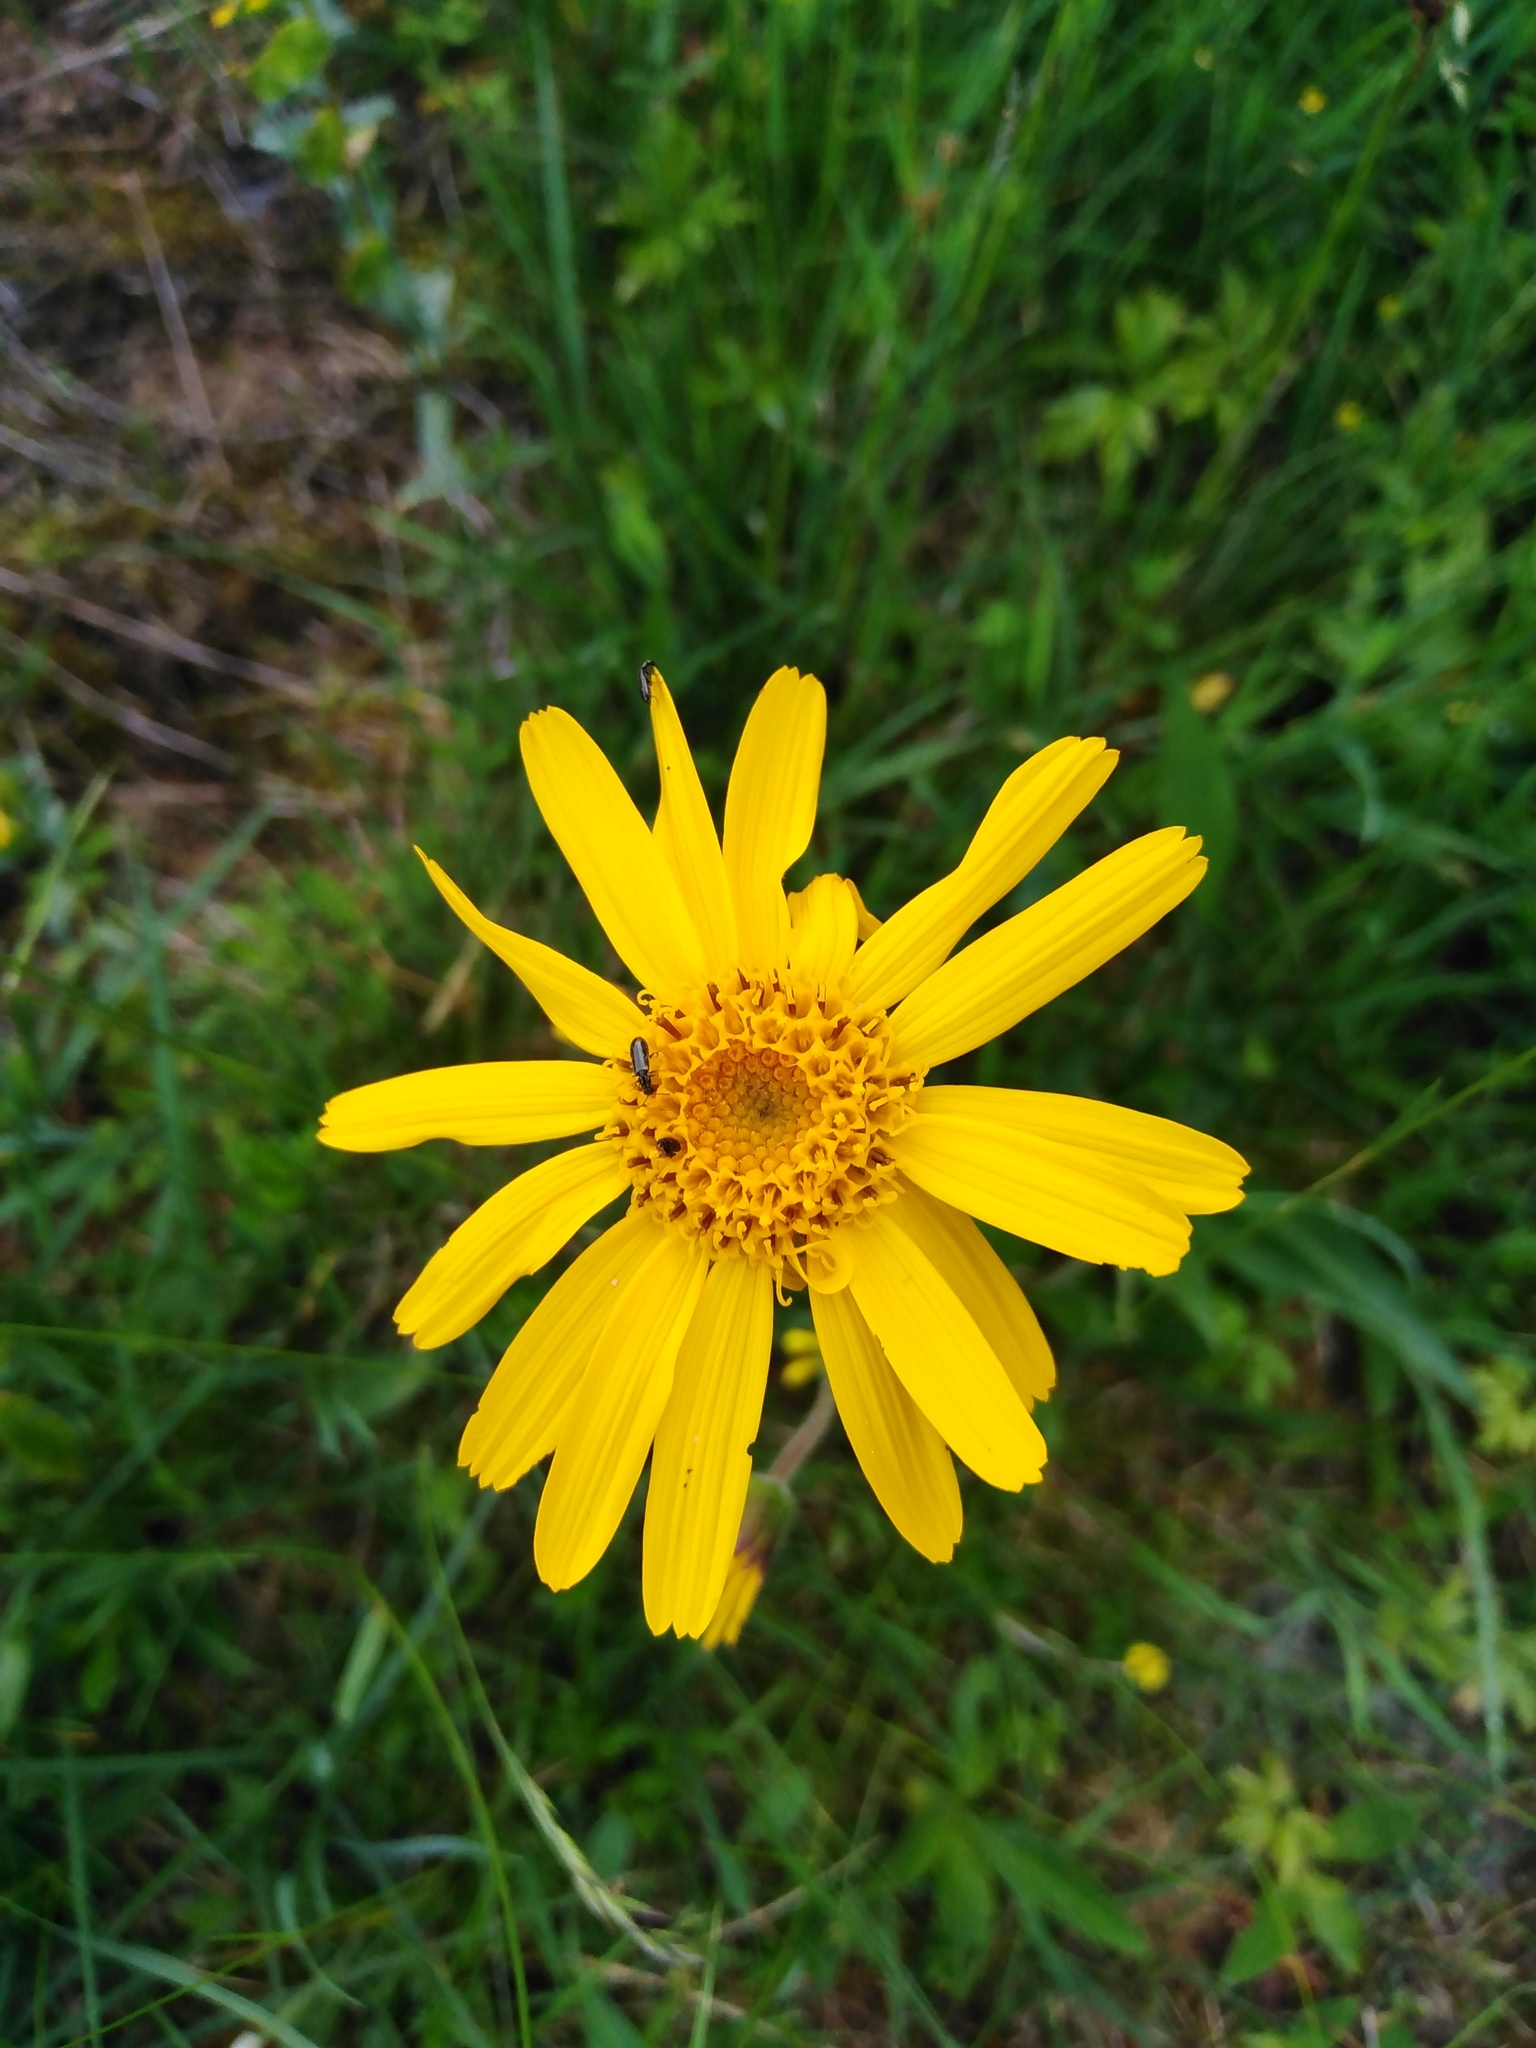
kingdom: Plantae
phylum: Tracheophyta
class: Magnoliopsida
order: Asterales
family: Asteraceae
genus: Arnica
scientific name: Arnica montana
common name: Leopard's bane
